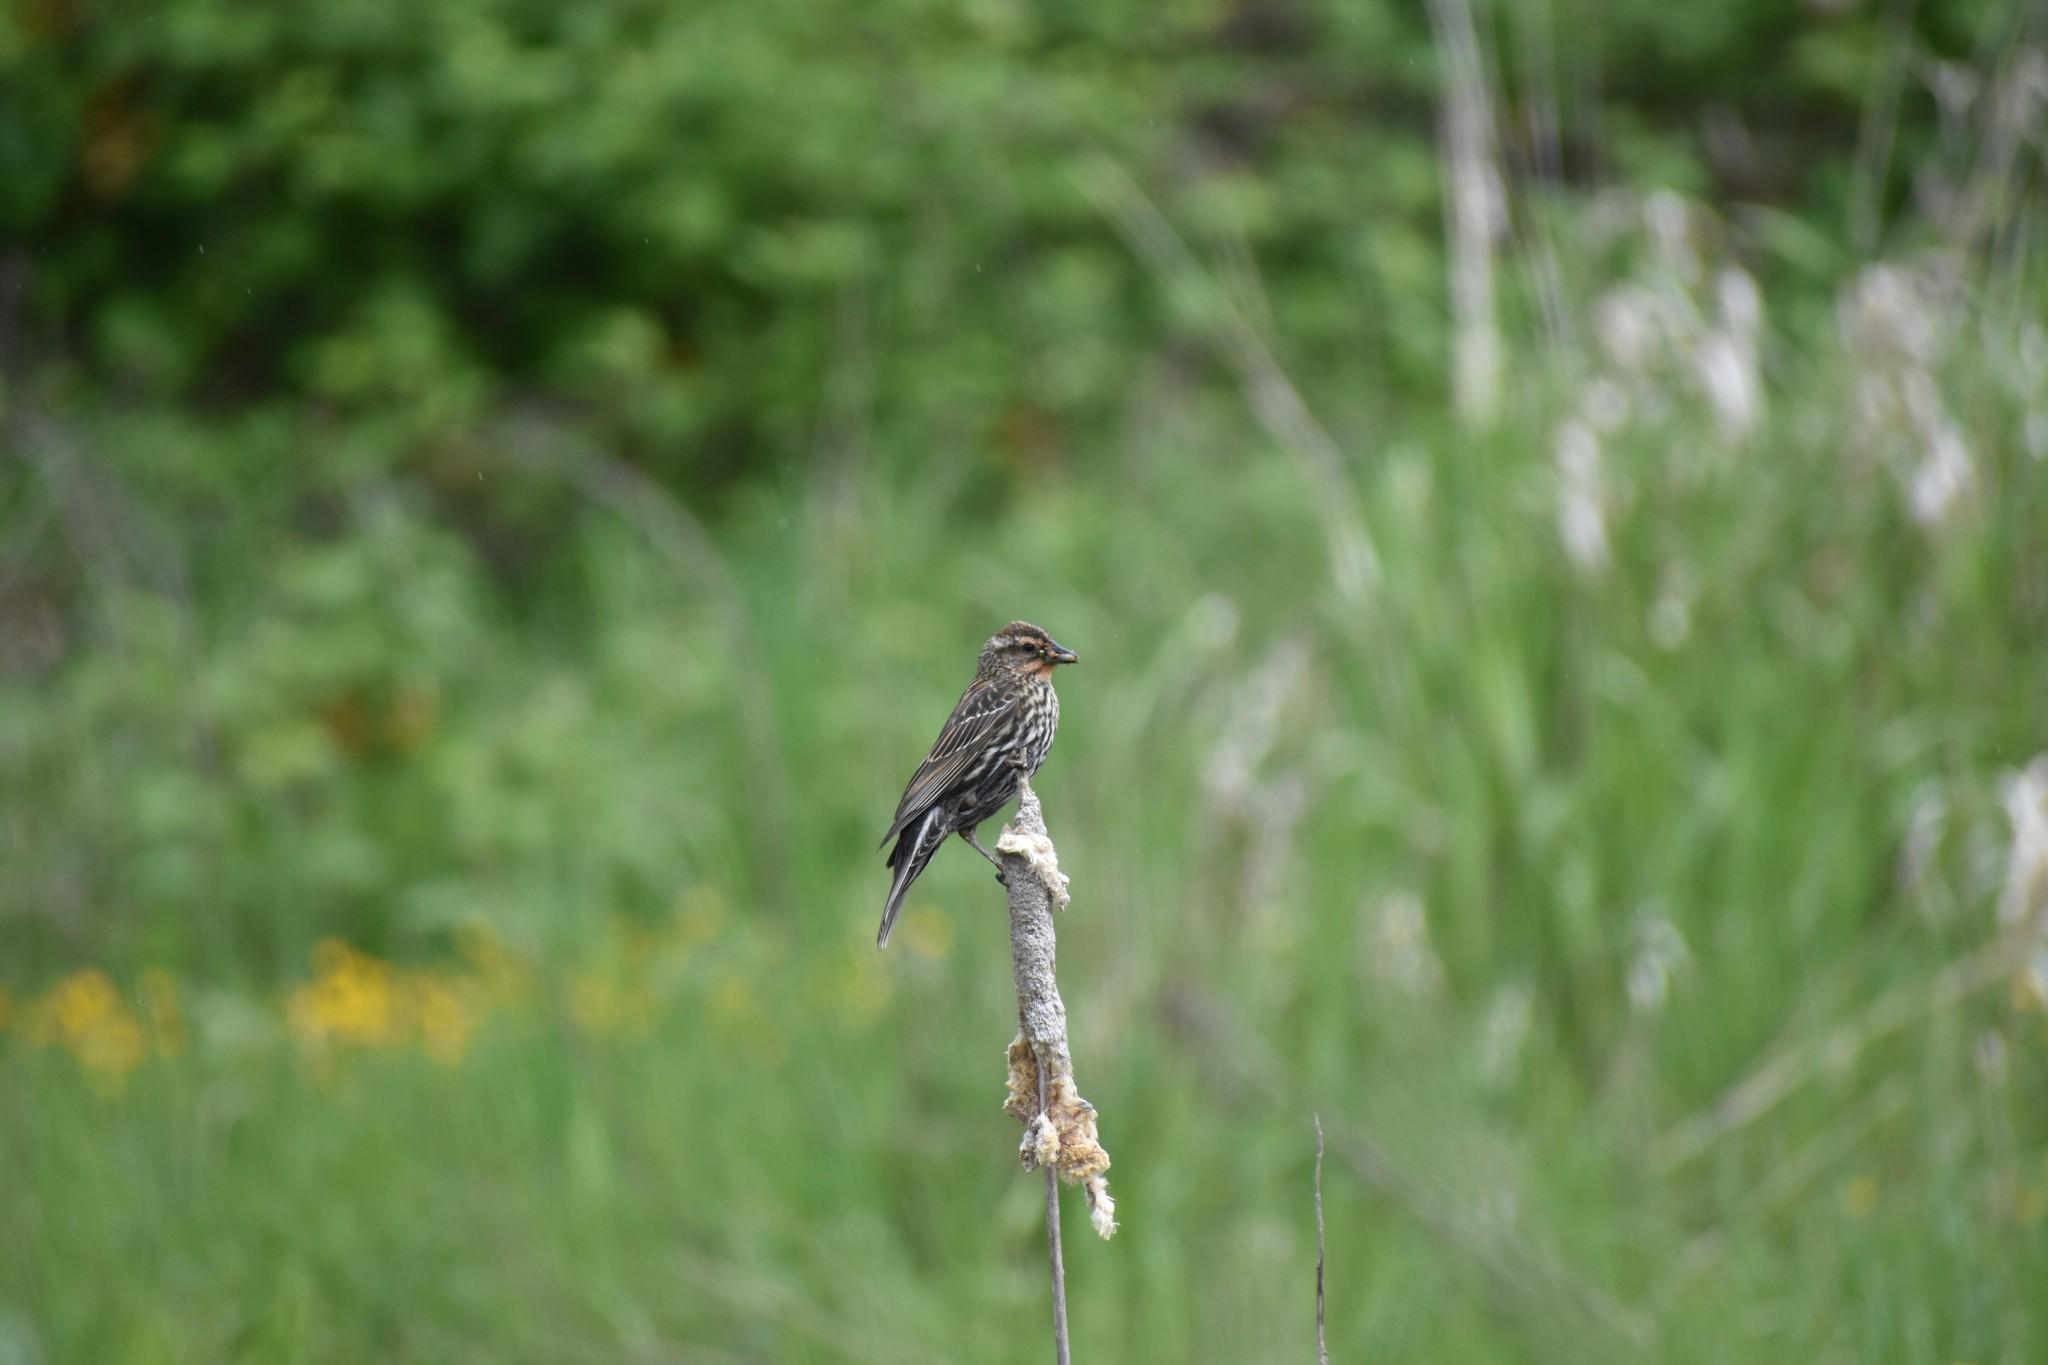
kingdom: Animalia
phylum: Chordata
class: Aves
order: Passeriformes
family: Icteridae
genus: Agelaius
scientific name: Agelaius phoeniceus
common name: Red-winged blackbird
